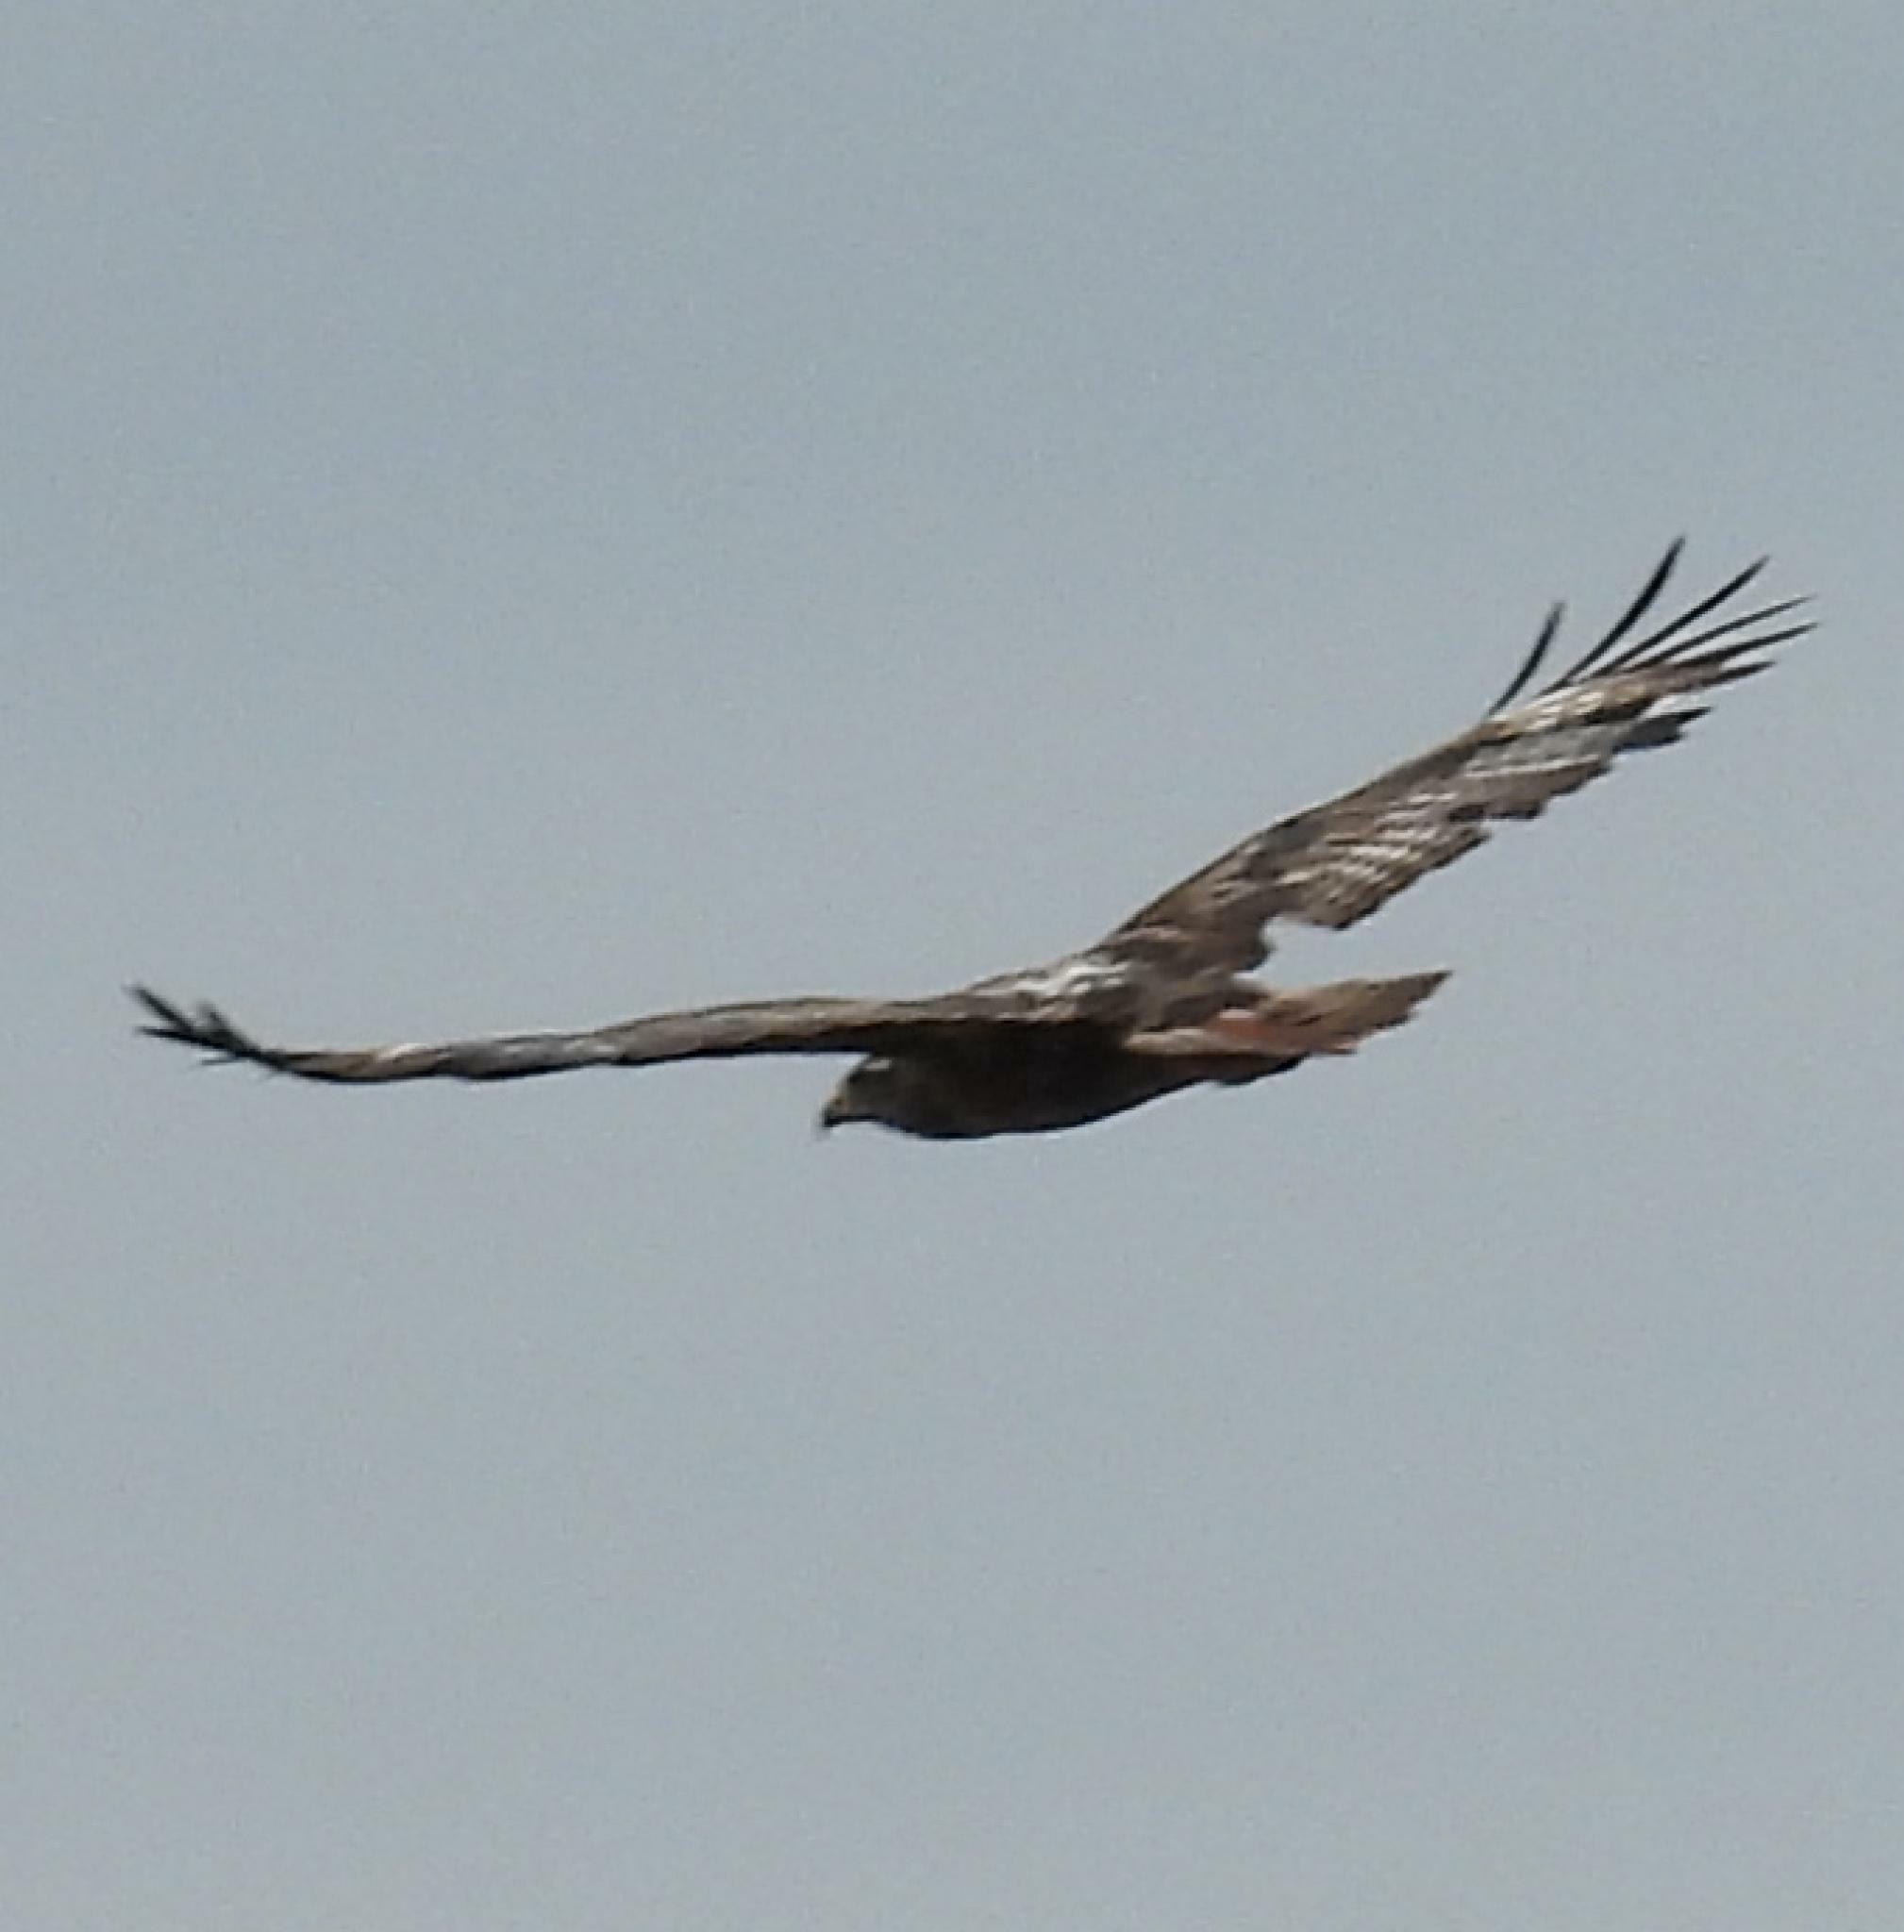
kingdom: Animalia
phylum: Chordata
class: Aves
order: Accipitriformes
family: Accipitridae
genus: Buteo
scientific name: Buteo rufofuscus
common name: Jackal buzzard
